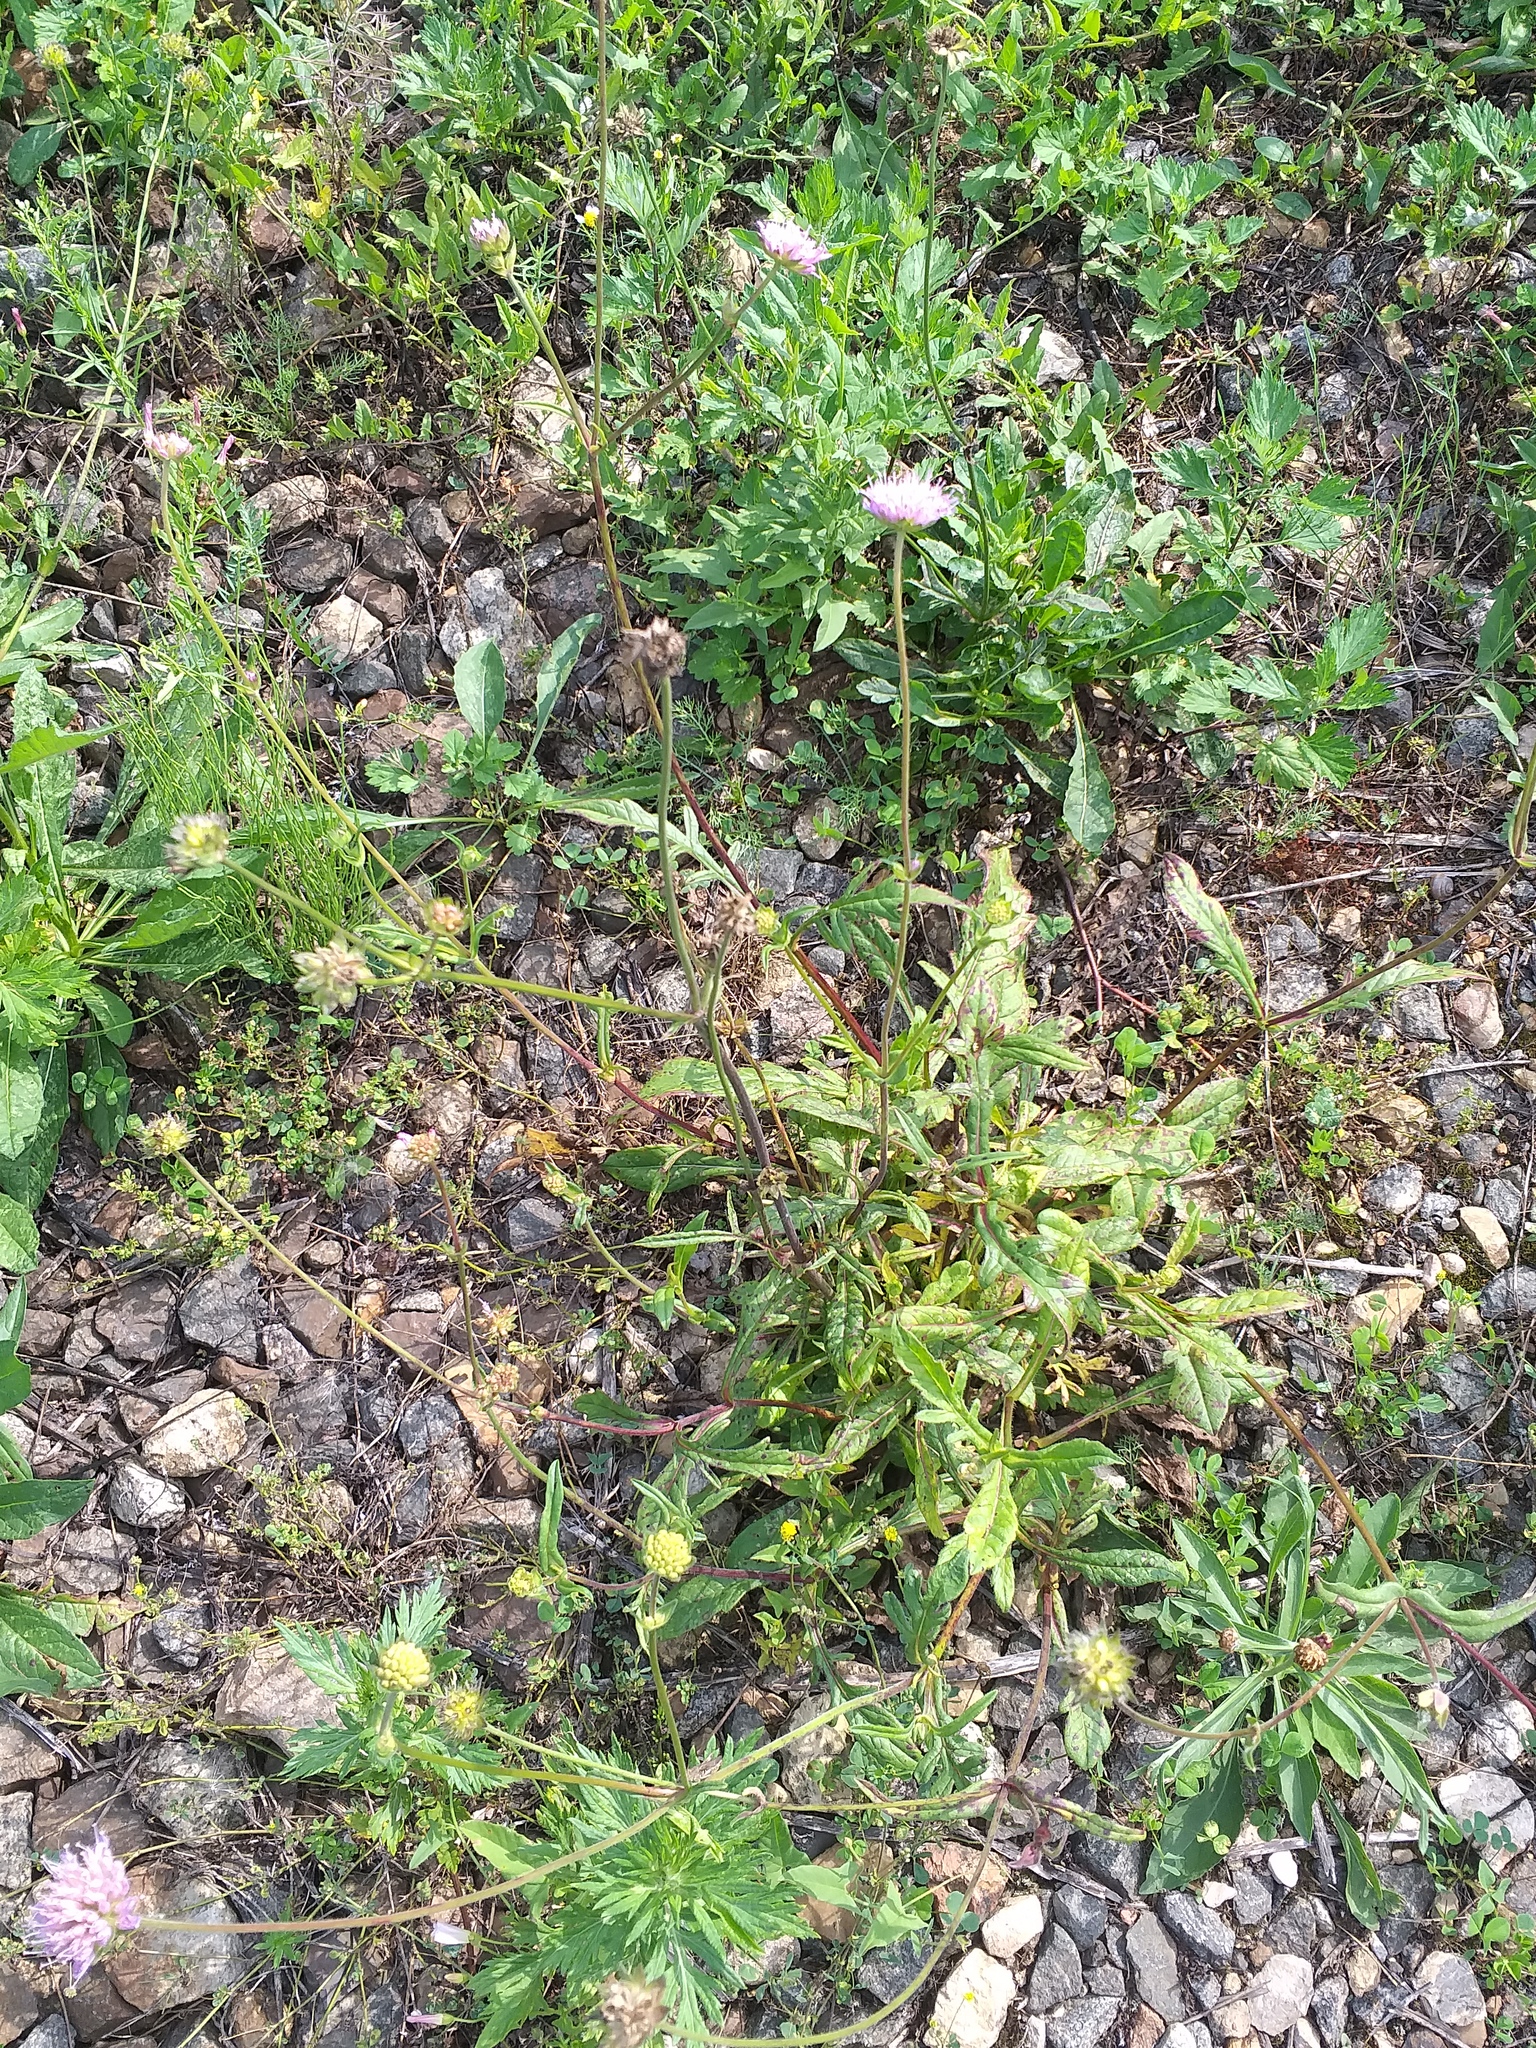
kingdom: Plantae
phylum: Tracheophyta
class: Magnoliopsida
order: Dipsacales
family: Caprifoliaceae
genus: Knautia
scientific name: Knautia arvensis
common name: Field scabiosa
